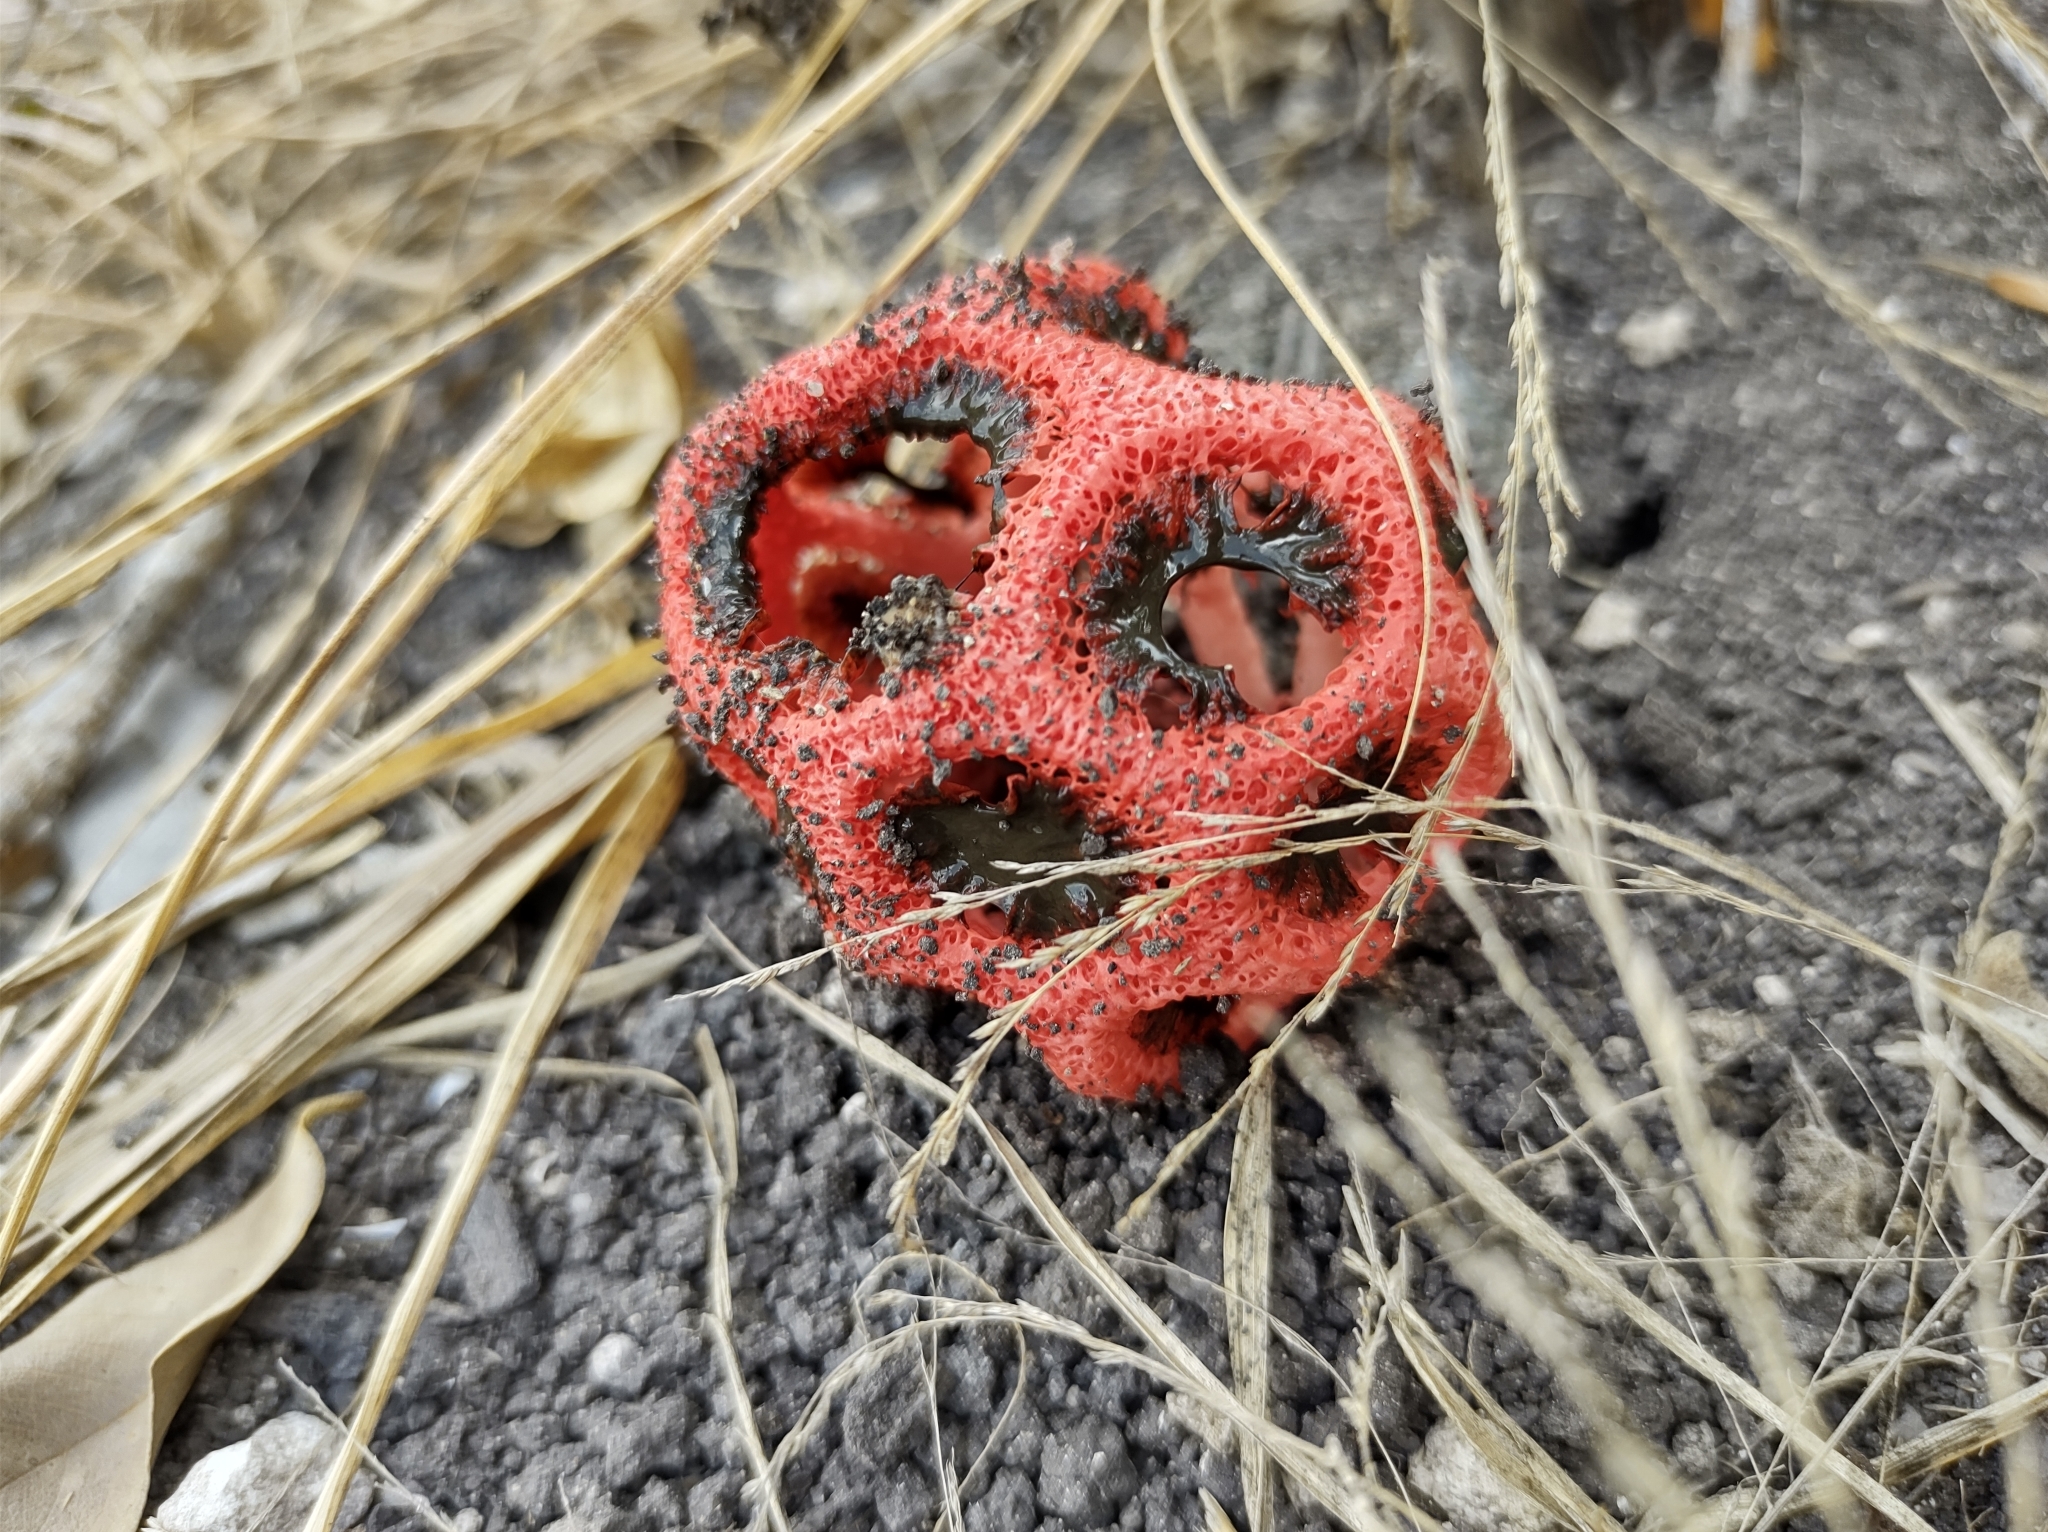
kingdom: Fungi
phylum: Basidiomycota
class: Agaricomycetes
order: Phallales
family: Phallaceae
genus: Clathrus
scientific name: Clathrus crispatus
